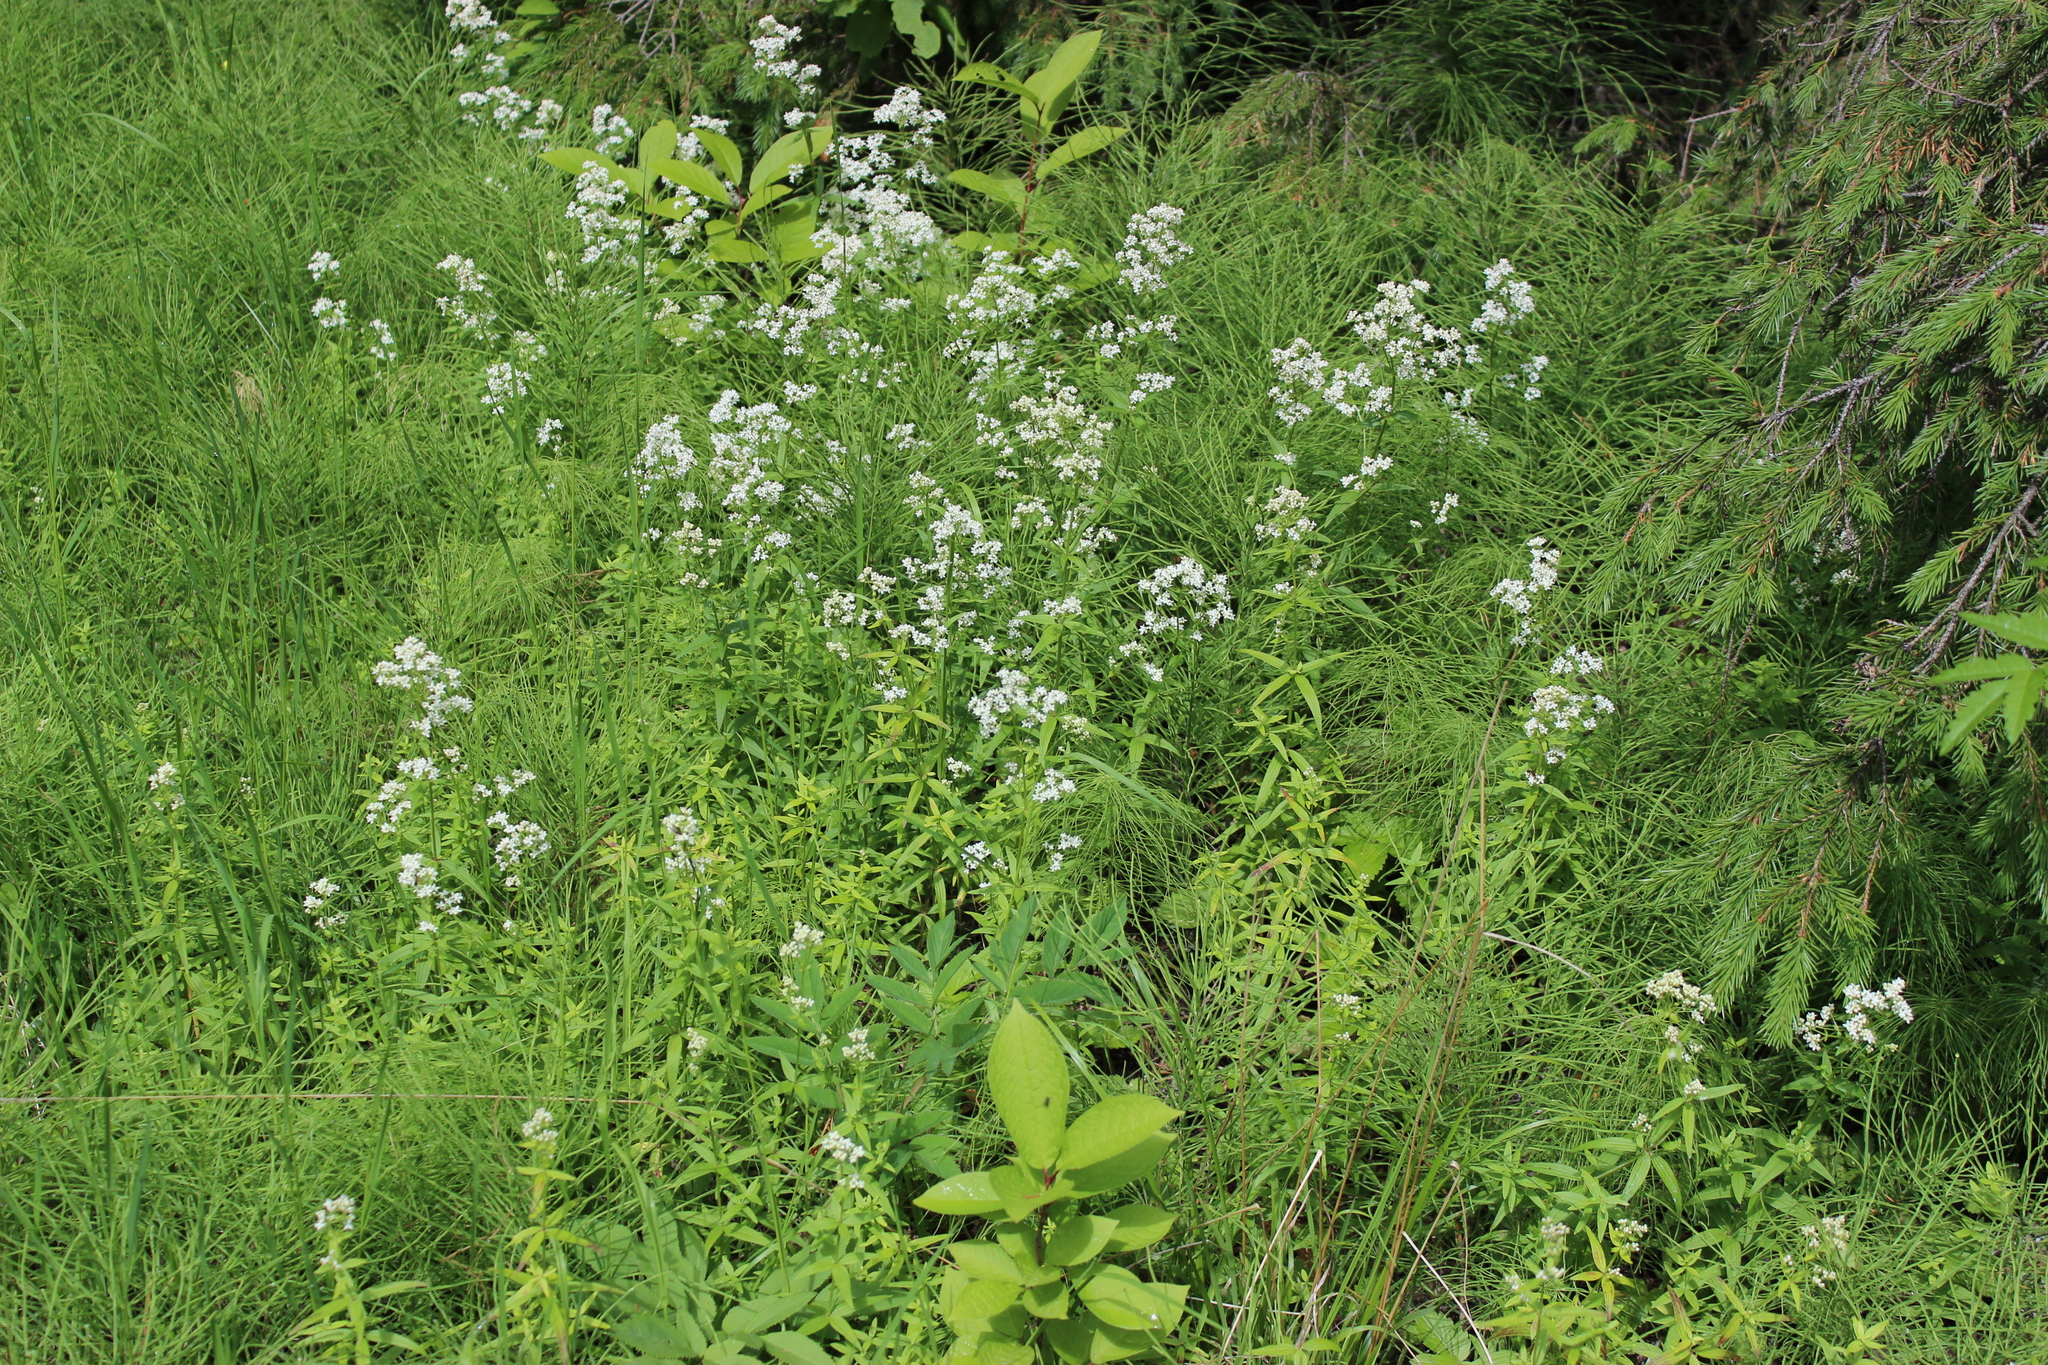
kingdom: Plantae
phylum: Tracheophyta
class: Magnoliopsida
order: Gentianales
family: Rubiaceae
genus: Galium
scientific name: Galium boreale
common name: Northern bedstraw
